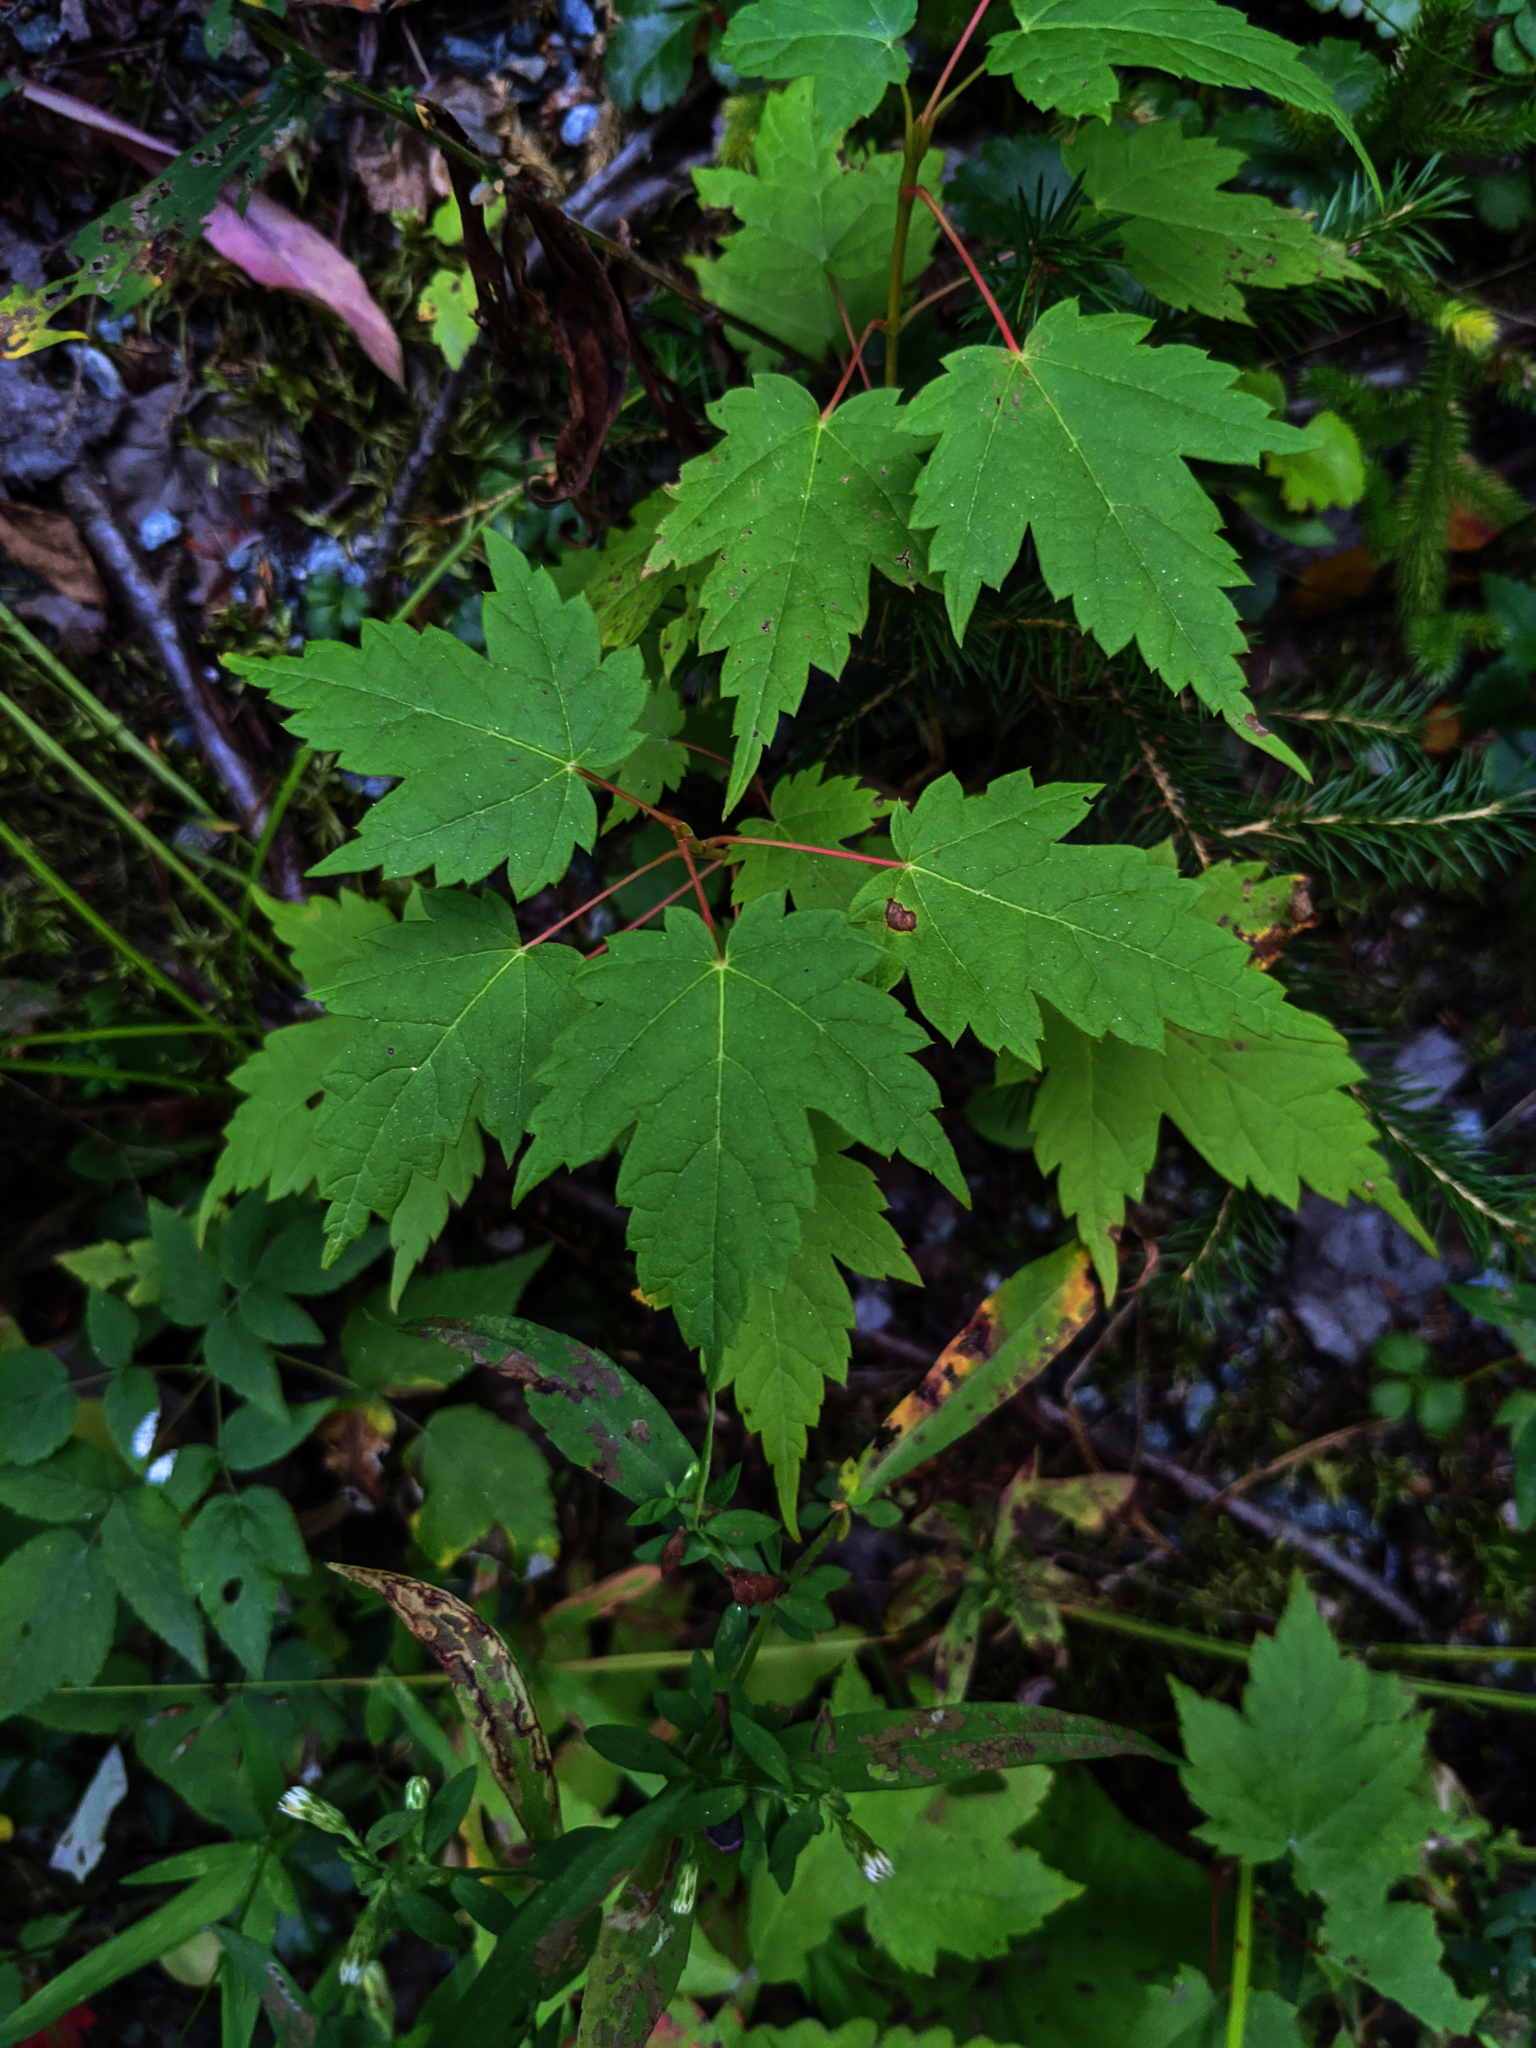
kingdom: Plantae
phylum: Tracheophyta
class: Magnoliopsida
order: Sapindales
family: Sapindaceae
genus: Acer
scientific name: Acer spicatum
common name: Mountain maple
